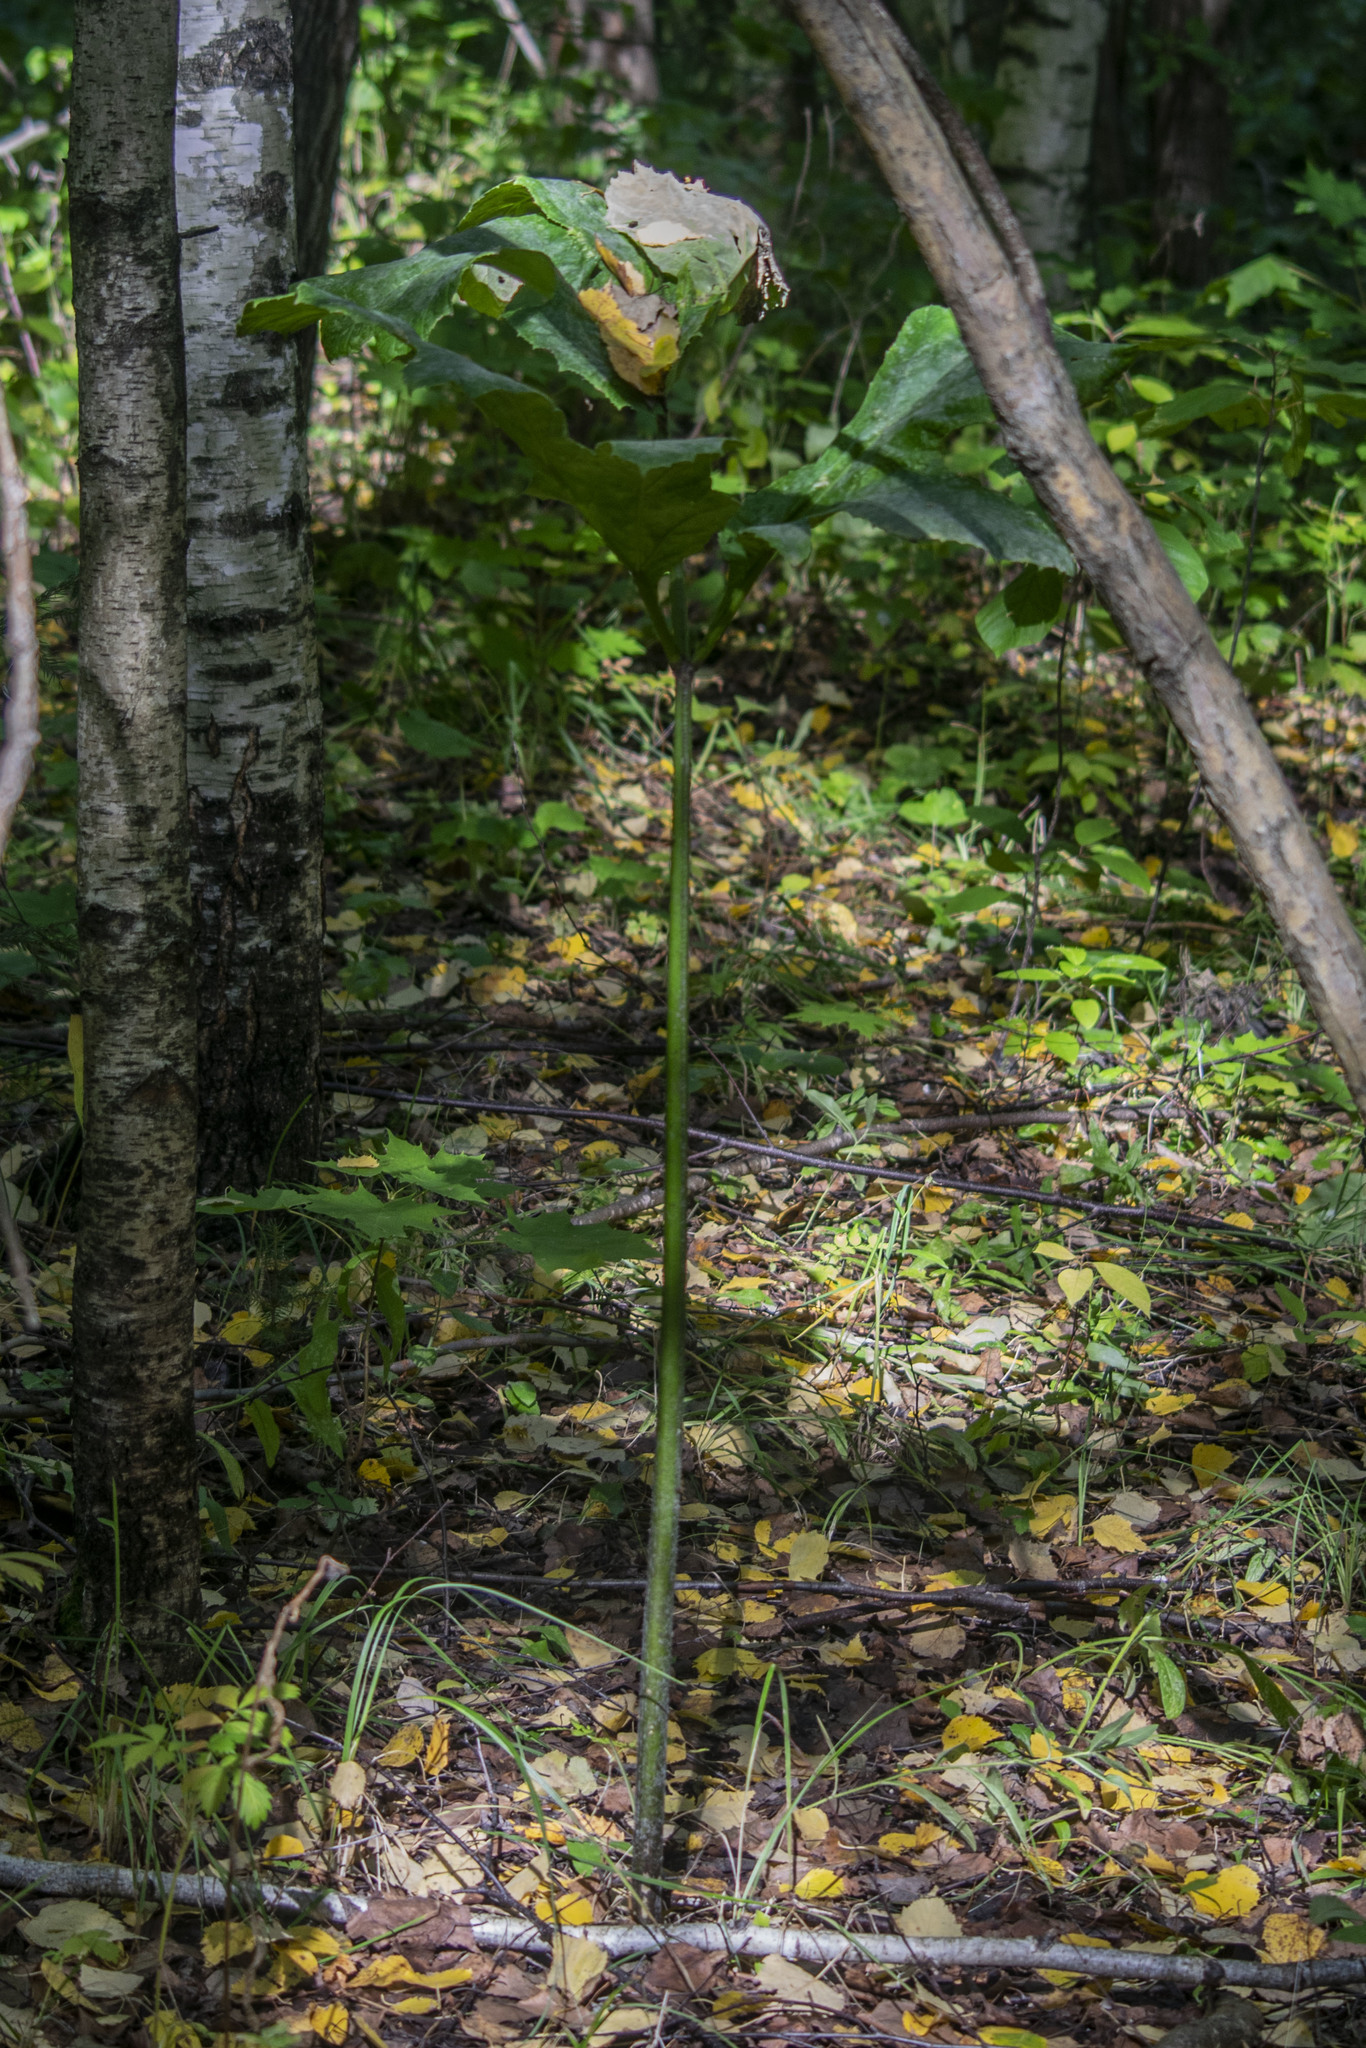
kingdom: Plantae
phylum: Tracheophyta
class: Magnoliopsida
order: Apiales
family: Apiaceae
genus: Angelica
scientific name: Angelica sylvestris
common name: Wild angelica
